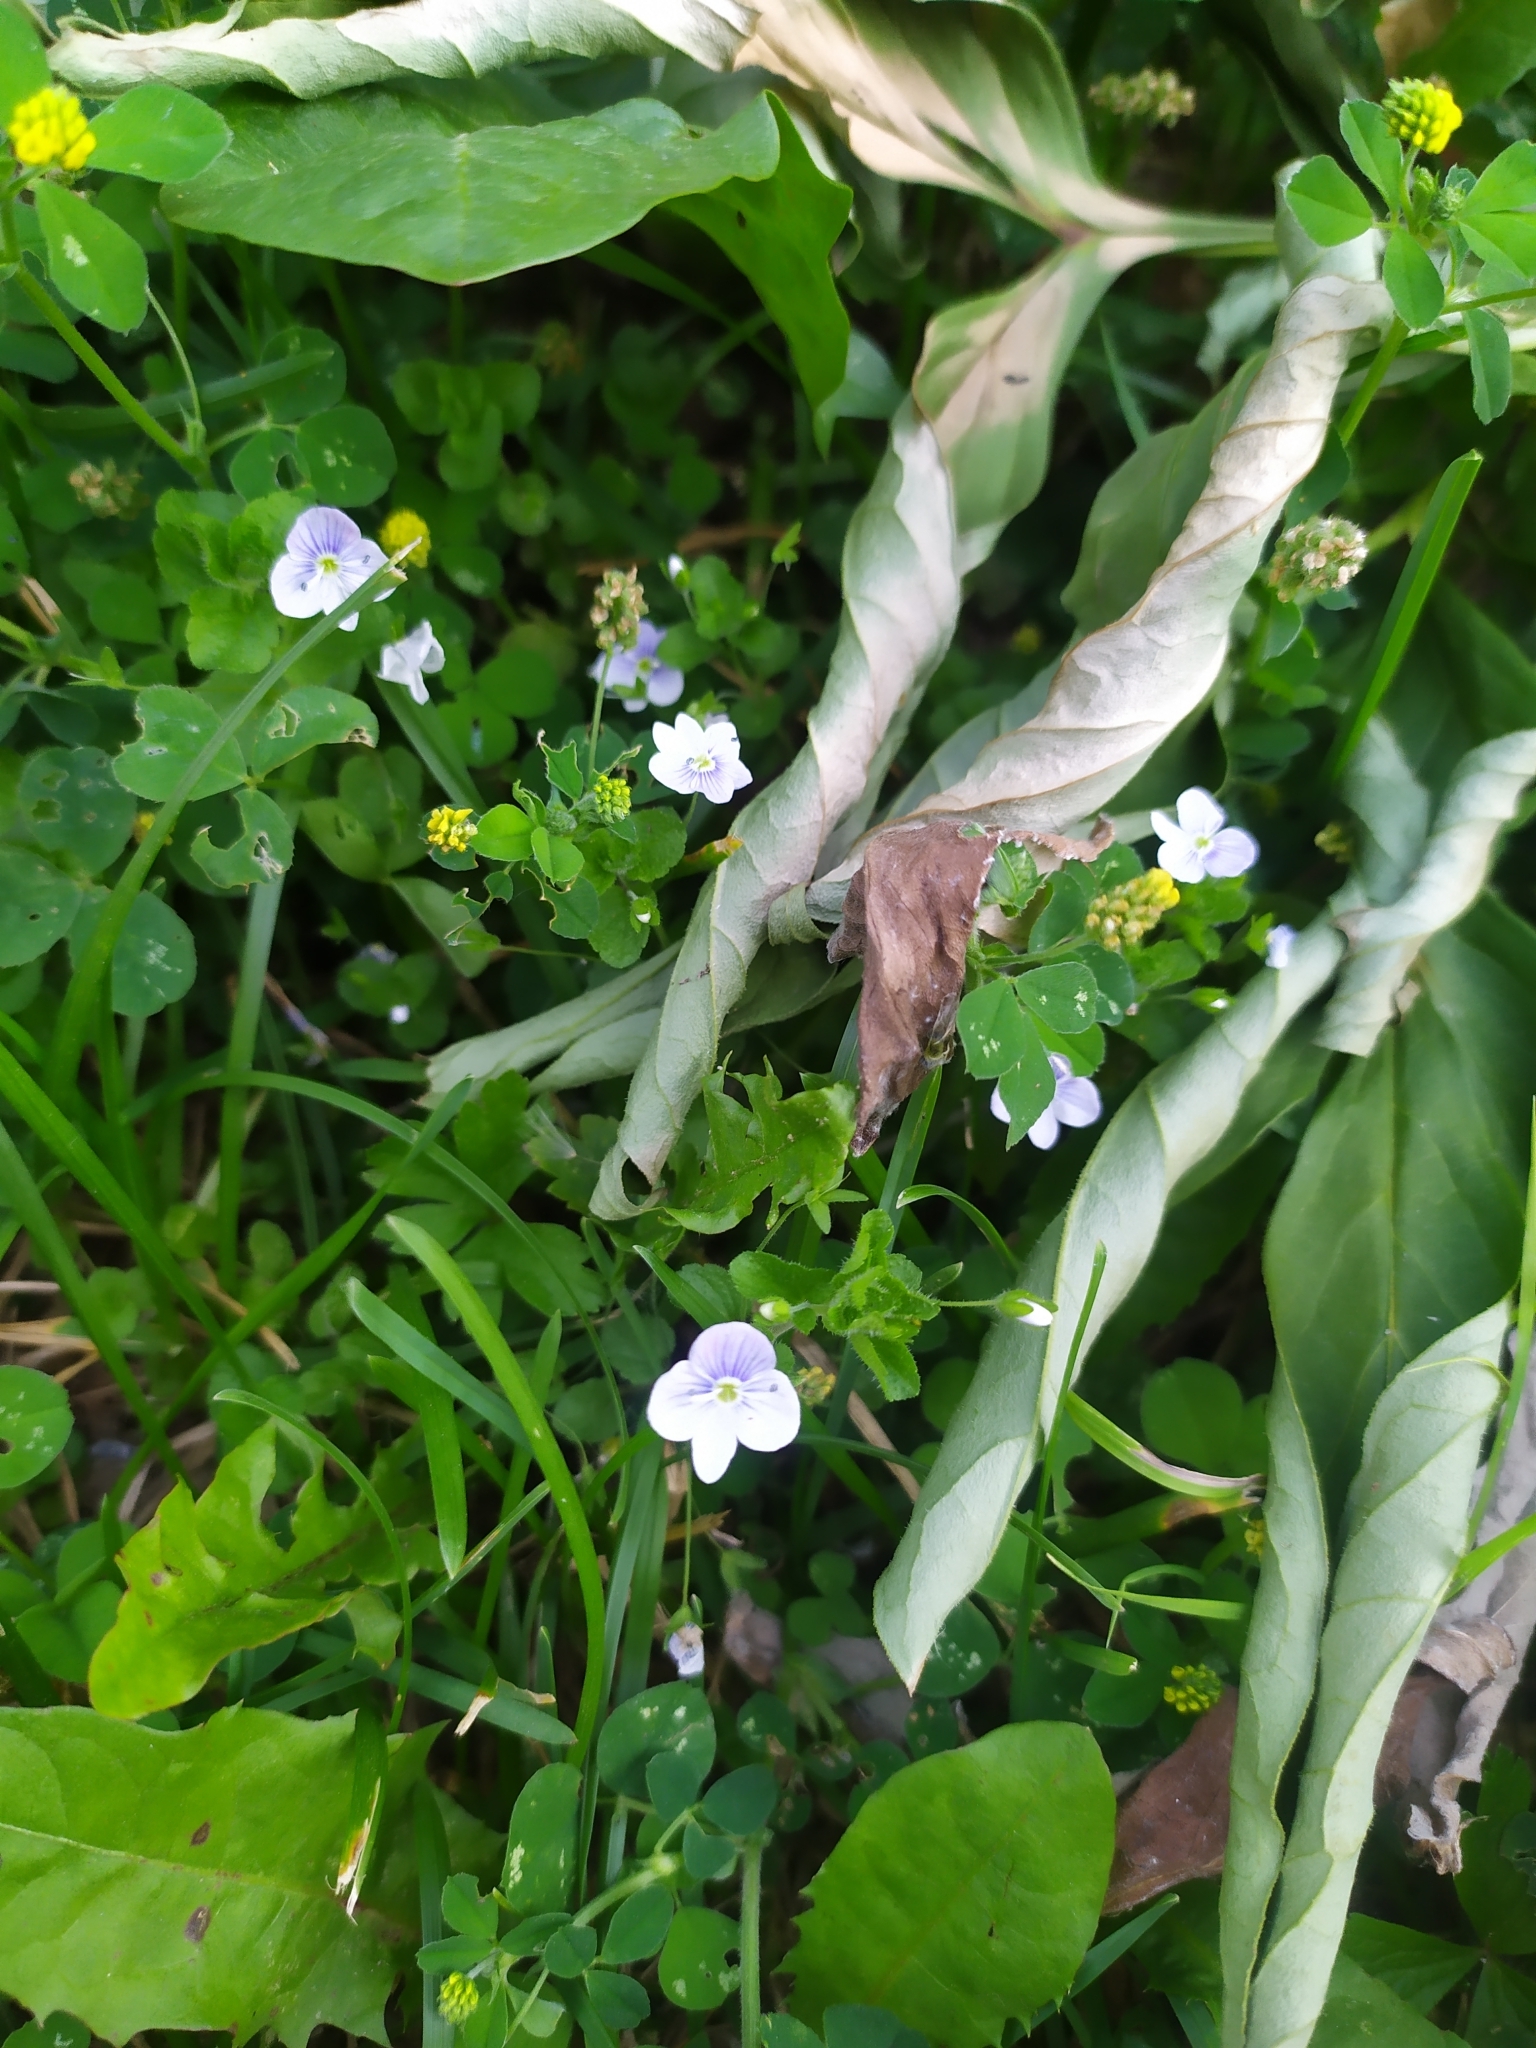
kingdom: Plantae
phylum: Tracheophyta
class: Magnoliopsida
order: Lamiales
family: Plantaginaceae
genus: Veronica
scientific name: Veronica filiformis
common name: Slender speedwell
